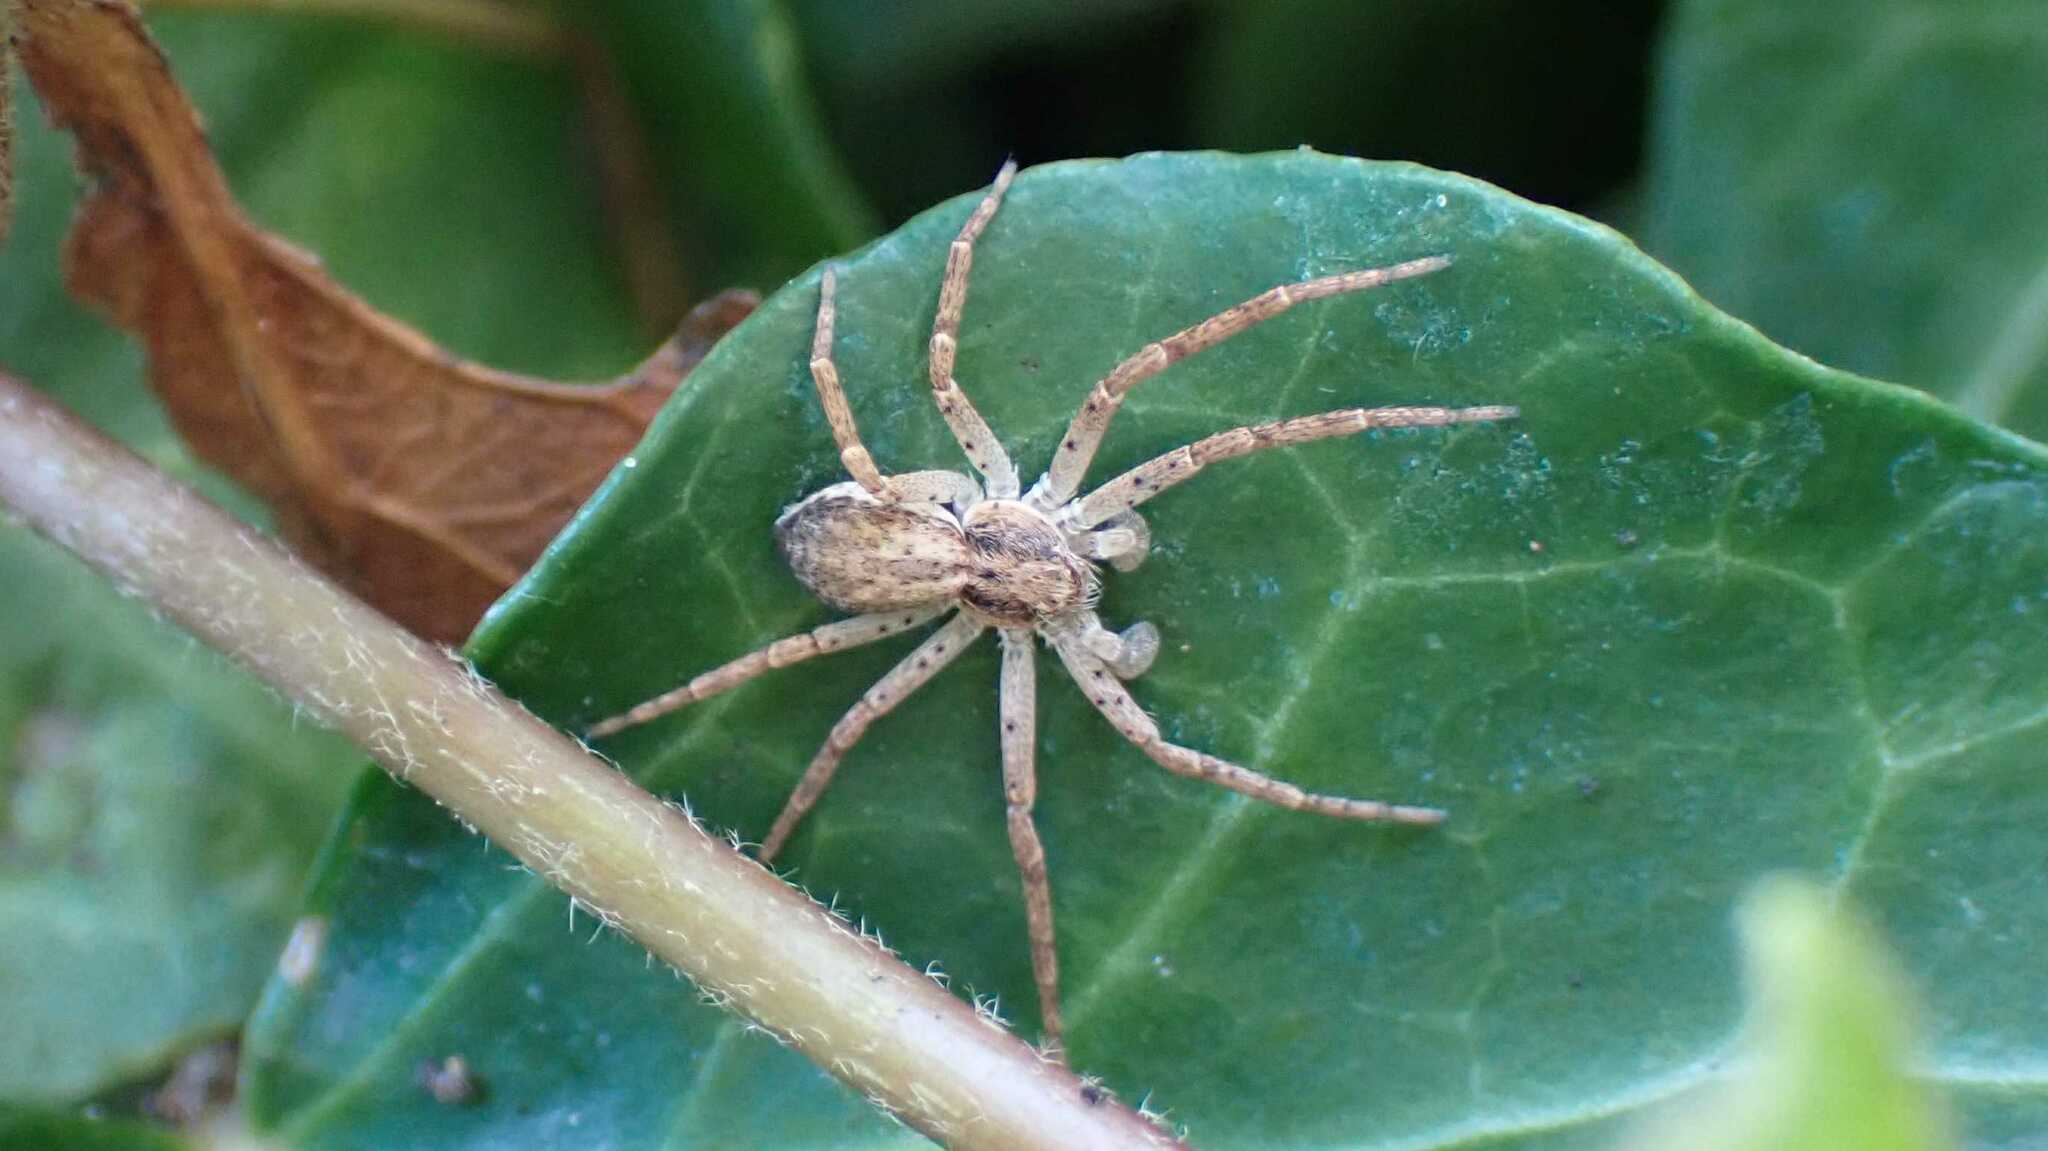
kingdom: Animalia
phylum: Arthropoda
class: Arachnida
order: Araneae
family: Philodromidae
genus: Philodromus
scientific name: Philodromus dispar
